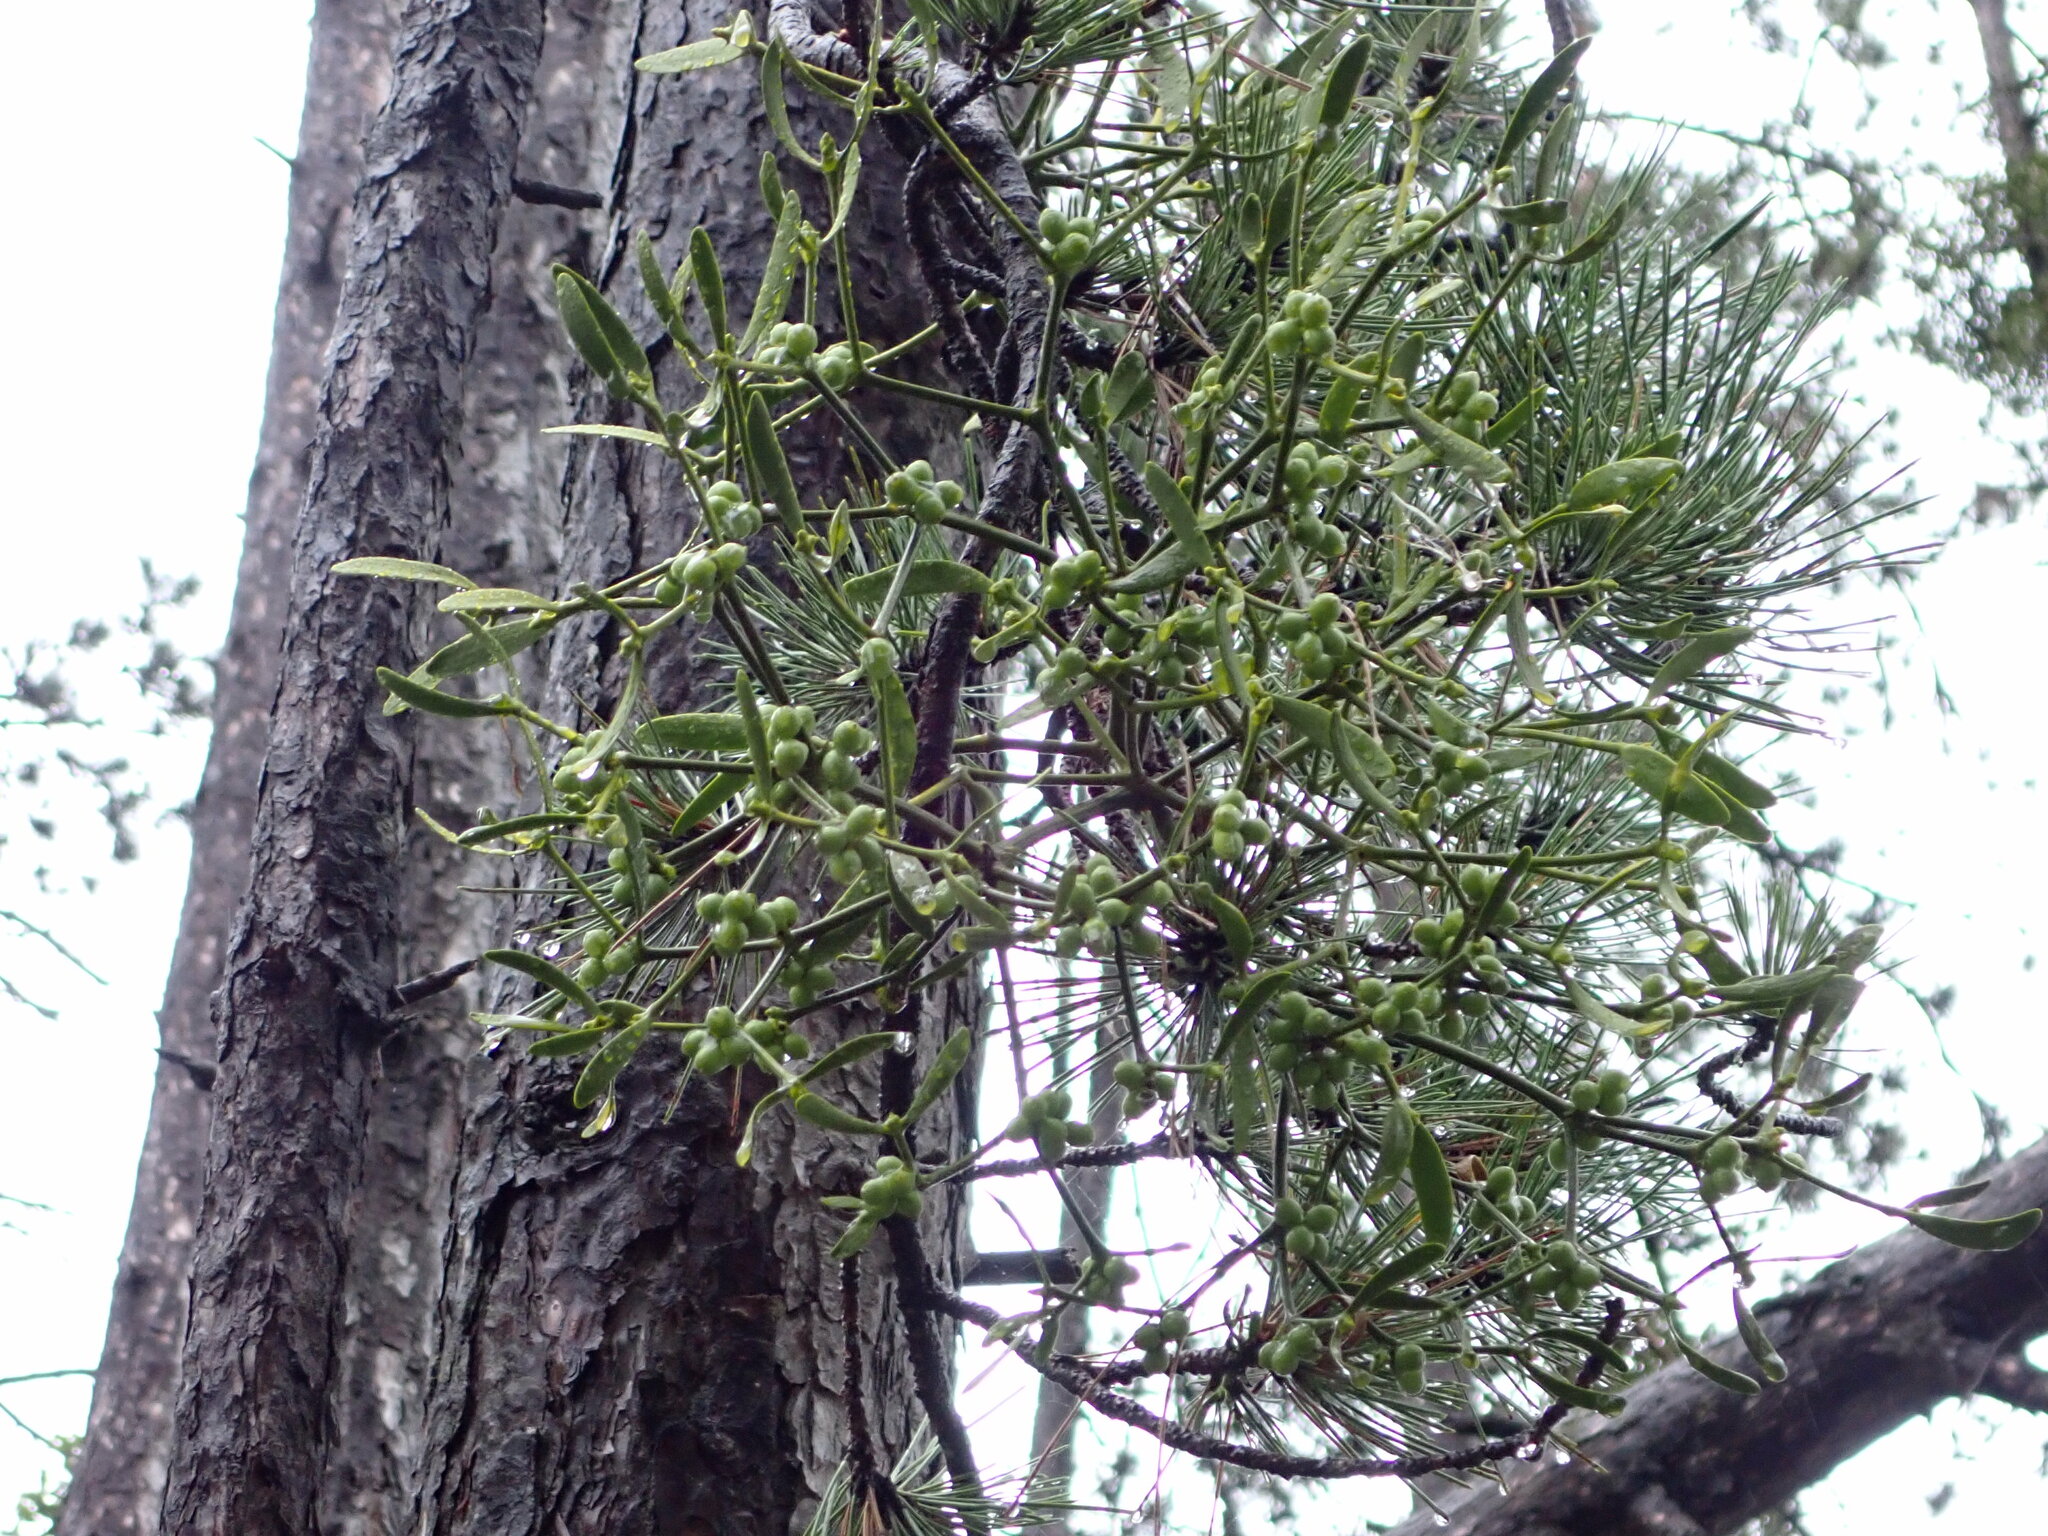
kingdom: Plantae
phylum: Tracheophyta
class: Magnoliopsida
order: Santalales
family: Viscaceae
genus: Viscum
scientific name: Viscum album
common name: Mistletoe
